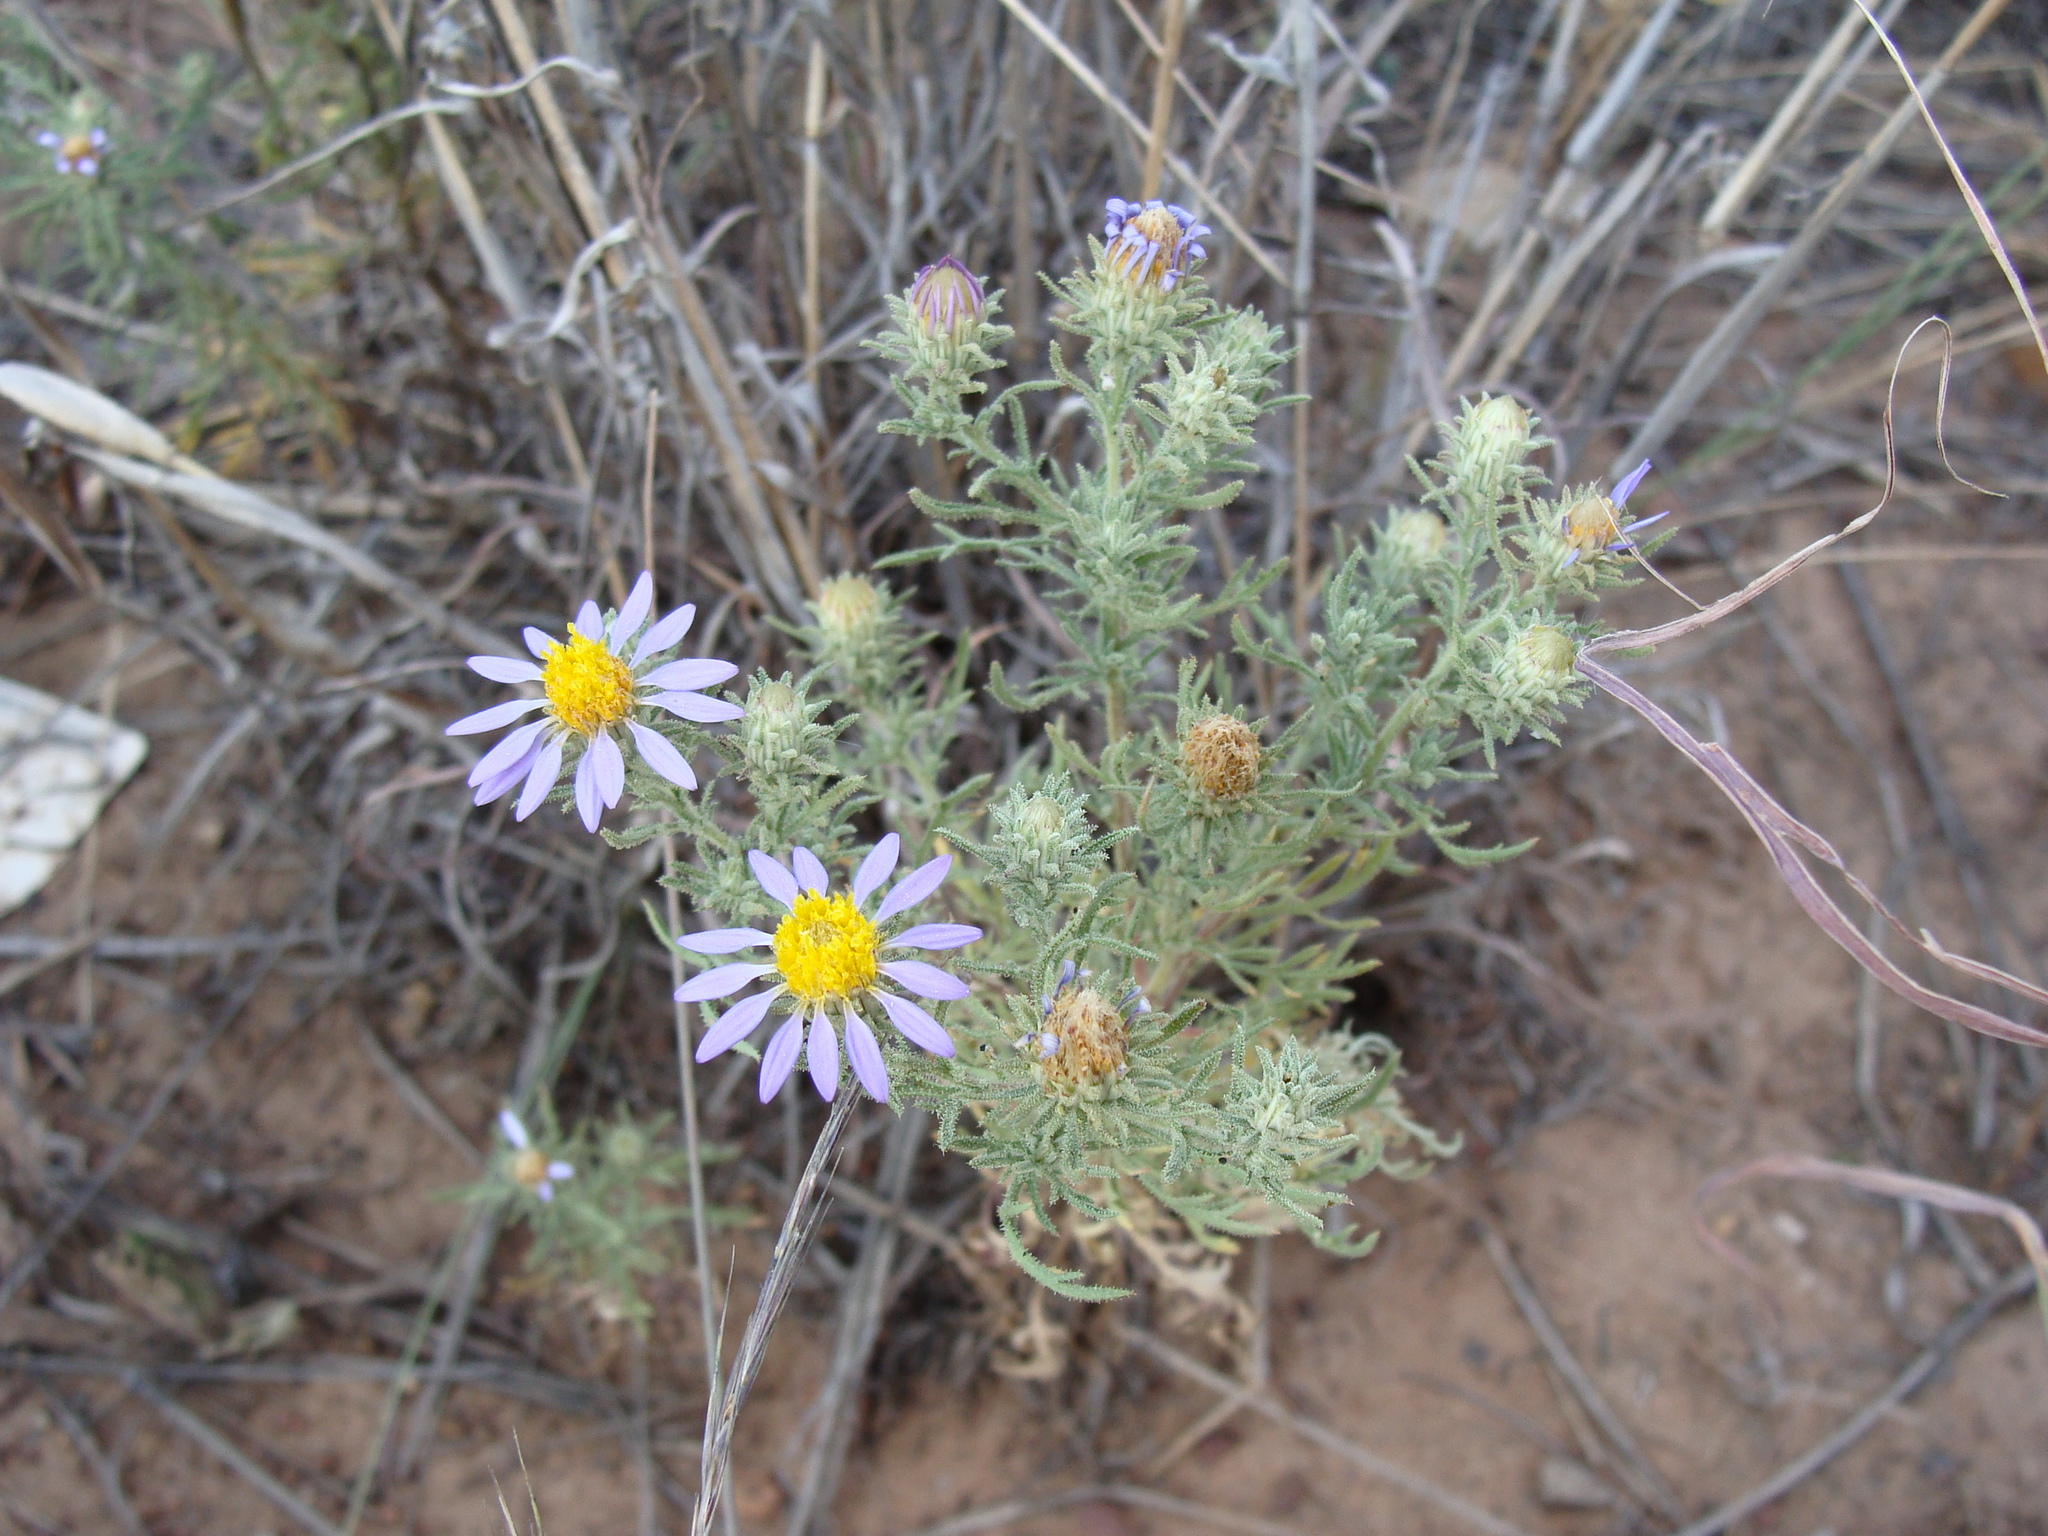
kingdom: Plantae
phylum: Tracheophyta
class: Magnoliopsida
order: Asterales
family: Asteraceae
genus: Machaeranthera
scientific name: Machaeranthera tagetina
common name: Mesa tansy-aster
